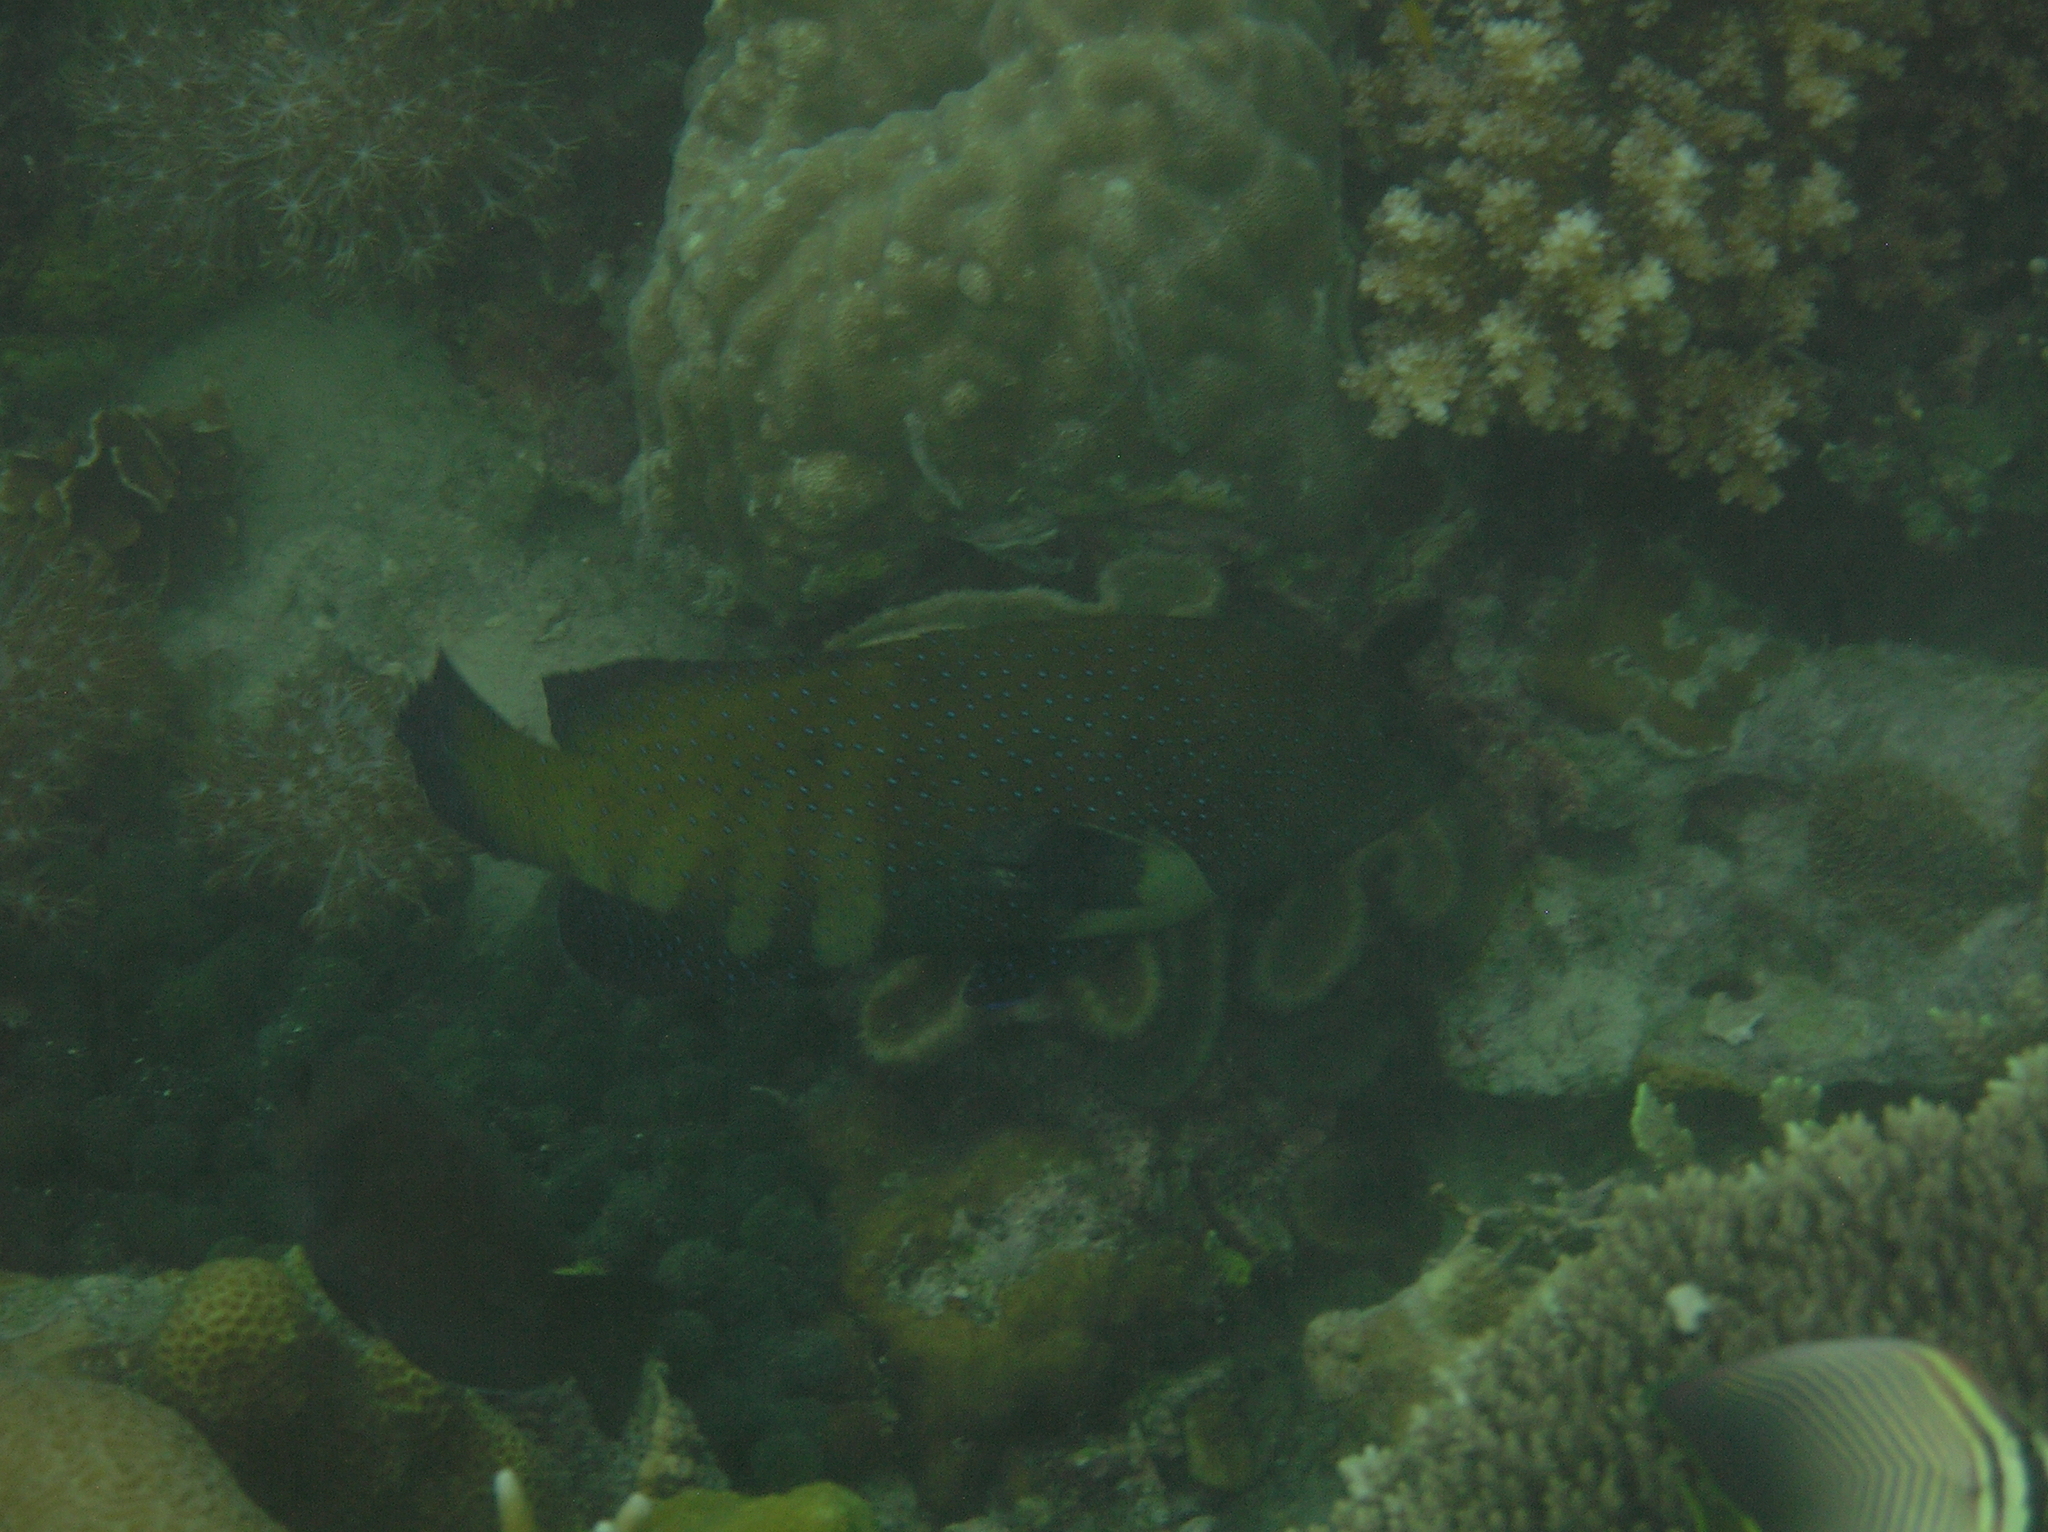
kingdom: Animalia
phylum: Chordata
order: Perciformes
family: Serranidae
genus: Cephalopholis
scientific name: Cephalopholis argus
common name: Peacock grouper
